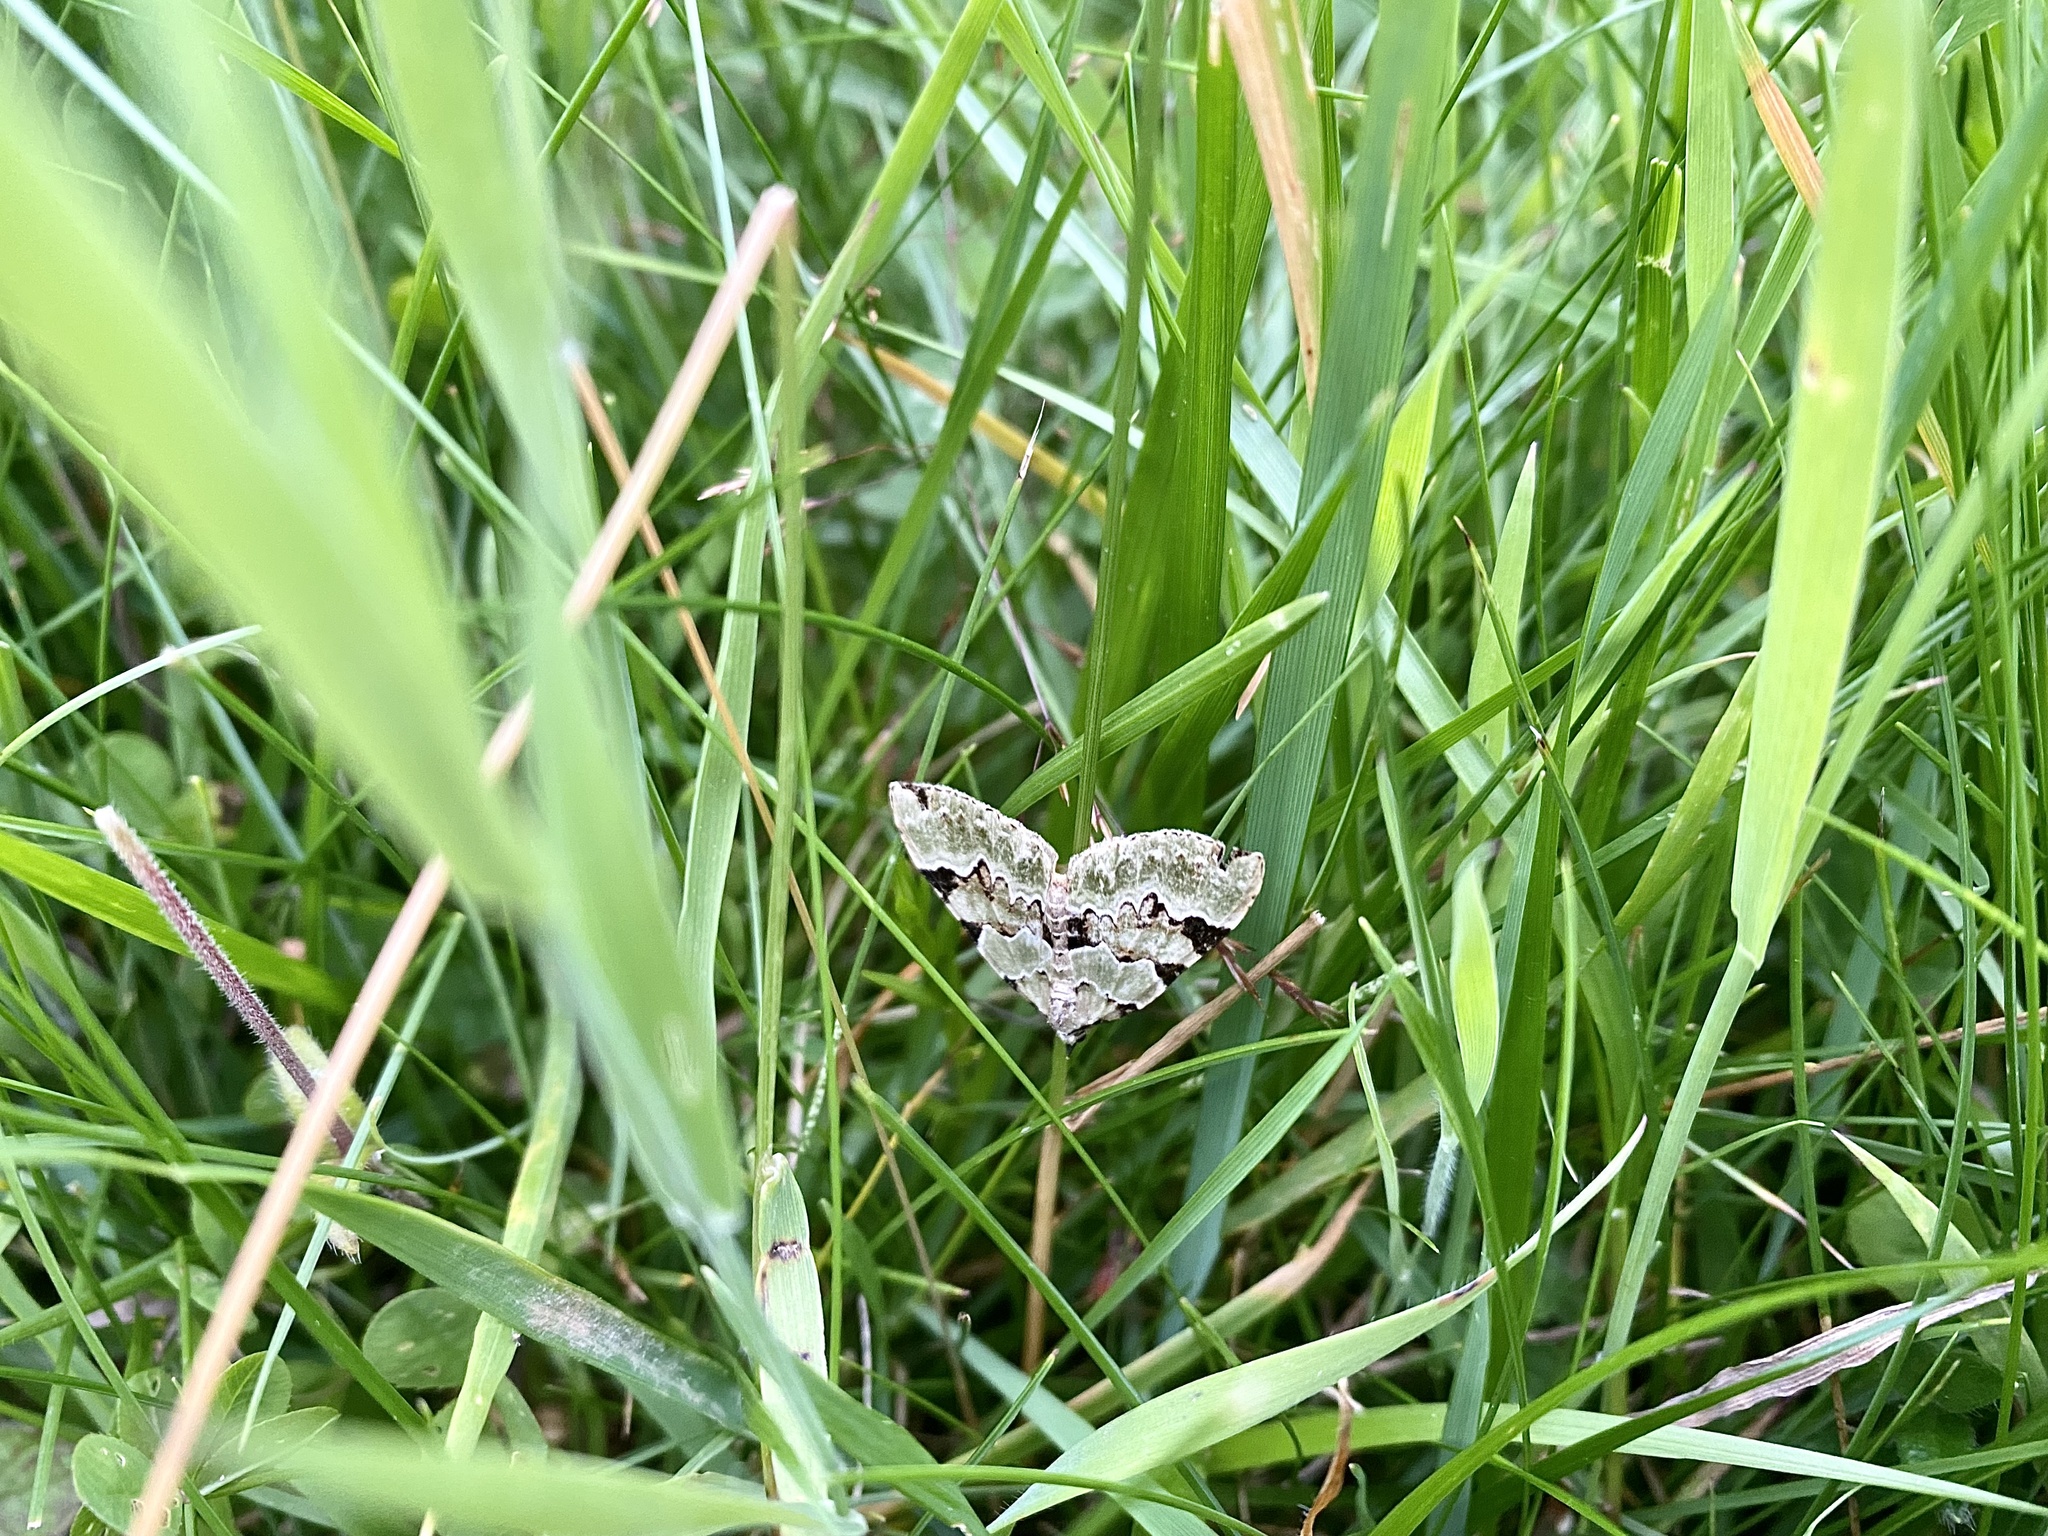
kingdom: Animalia
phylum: Arthropoda
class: Insecta
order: Lepidoptera
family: Geometridae
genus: Colostygia
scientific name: Colostygia pectinataria
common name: Green carpet
